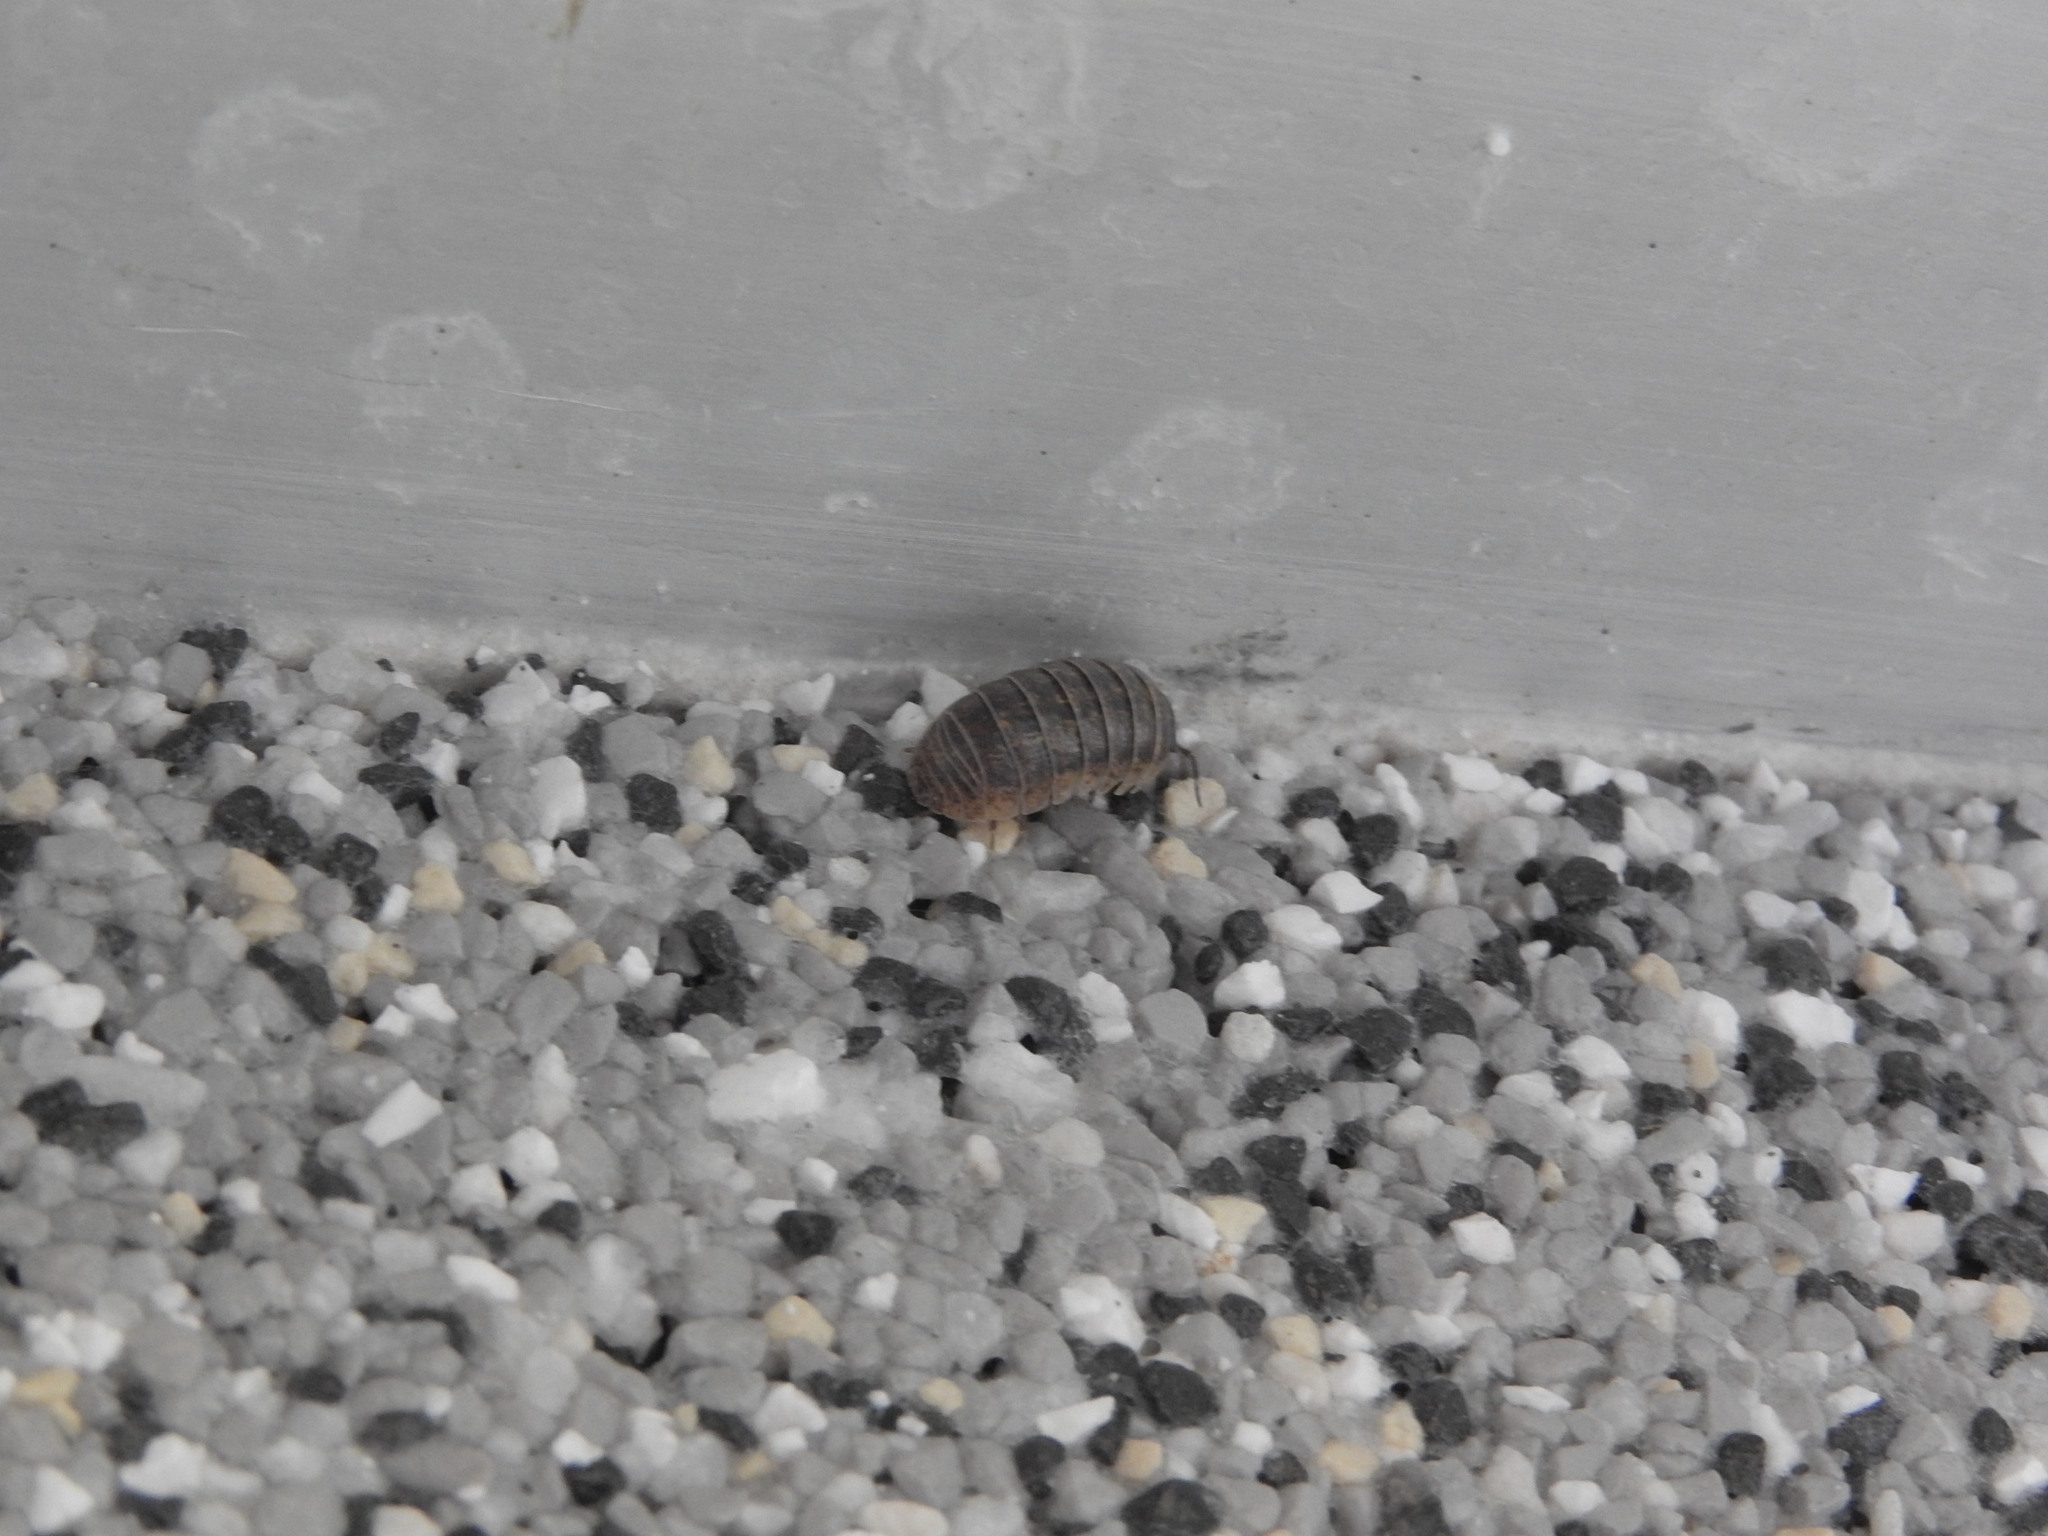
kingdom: Animalia
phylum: Arthropoda
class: Malacostraca
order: Isopoda
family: Armadillidiidae
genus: Armadillidium
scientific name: Armadillidium vulgare
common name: Common pill woodlouse
